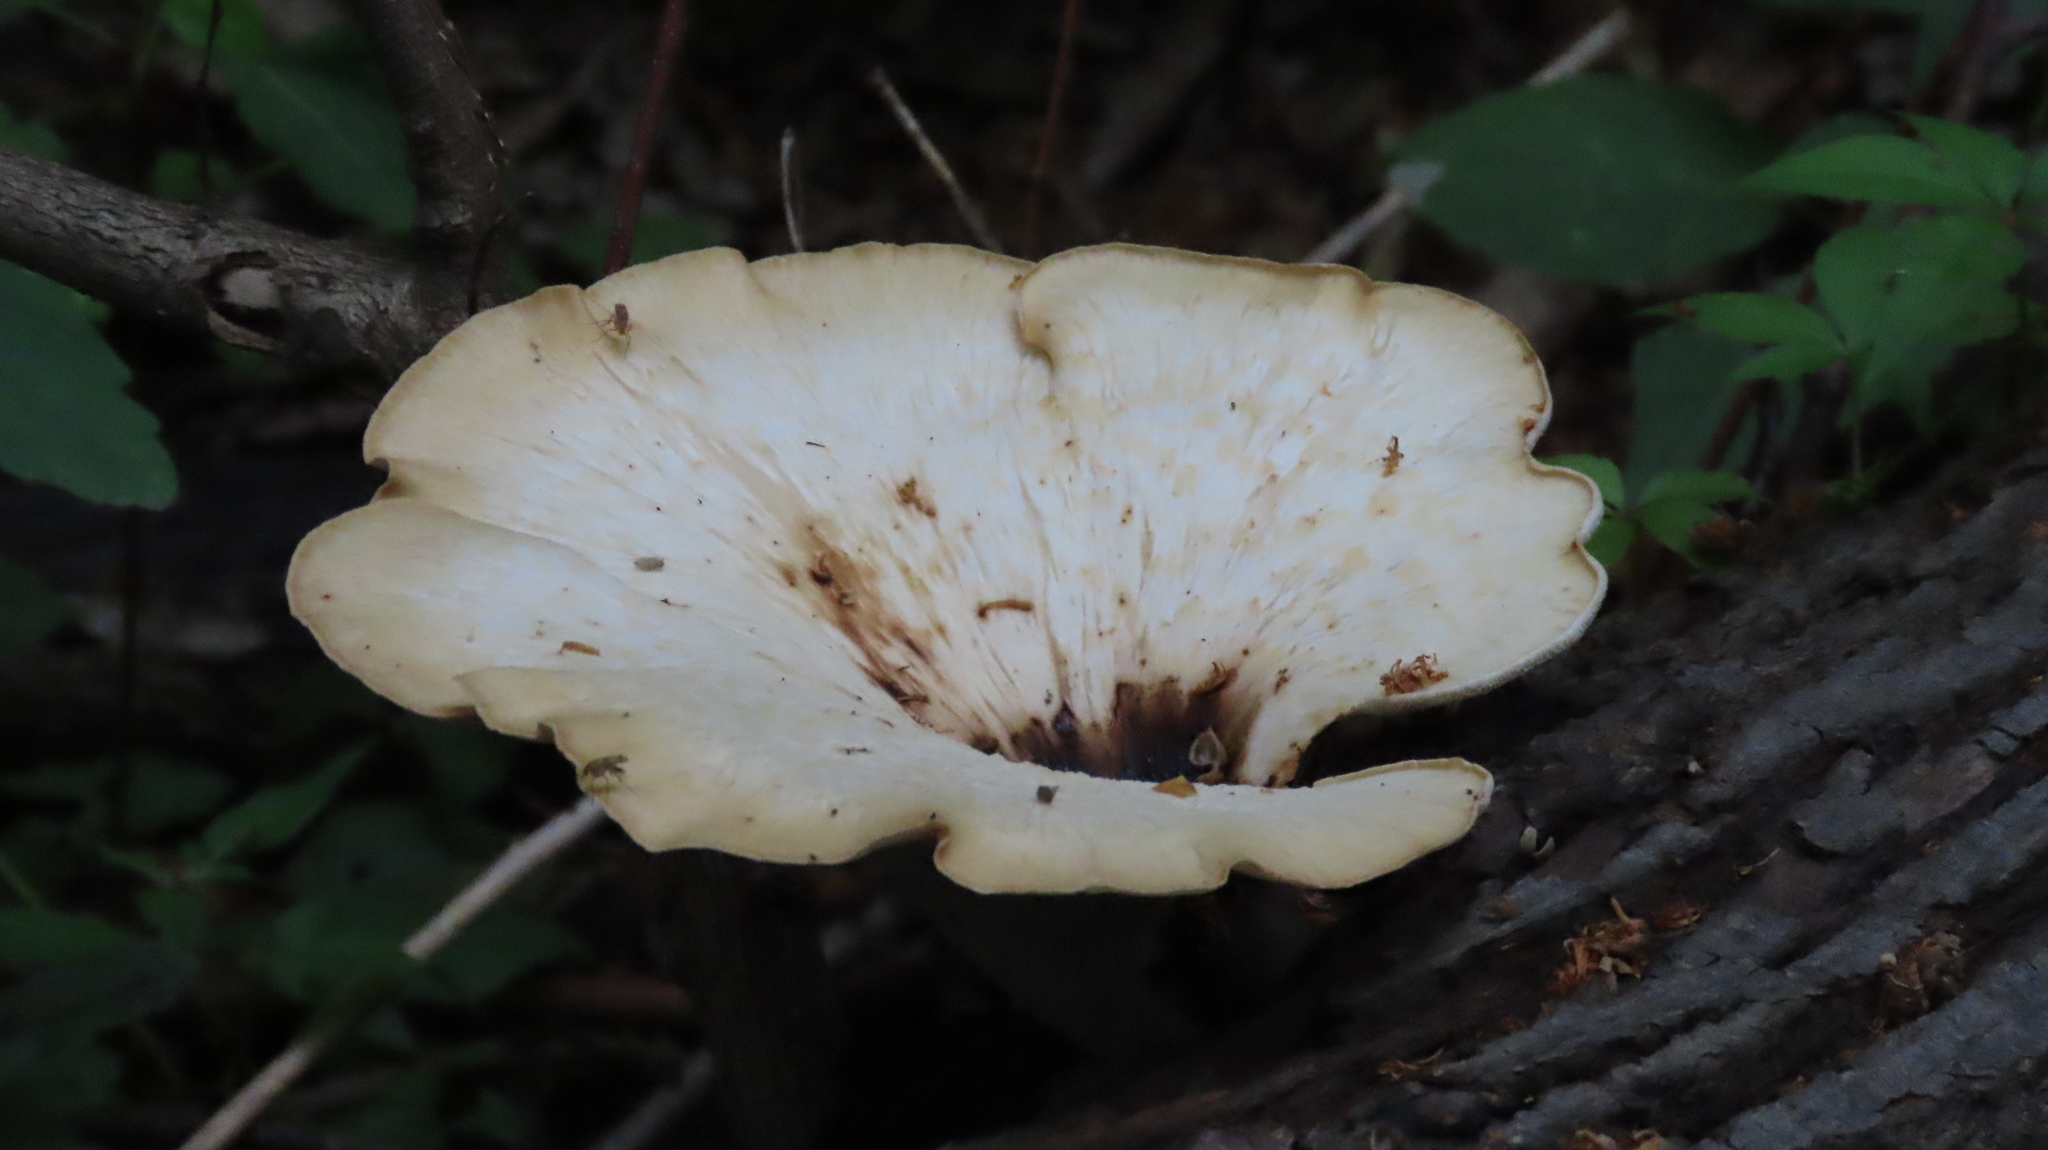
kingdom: Fungi
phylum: Basidiomycota
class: Agaricomycetes
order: Polyporales
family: Polyporaceae
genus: Cerioporus
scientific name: Cerioporus squamosus
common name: Dryad's saddle
